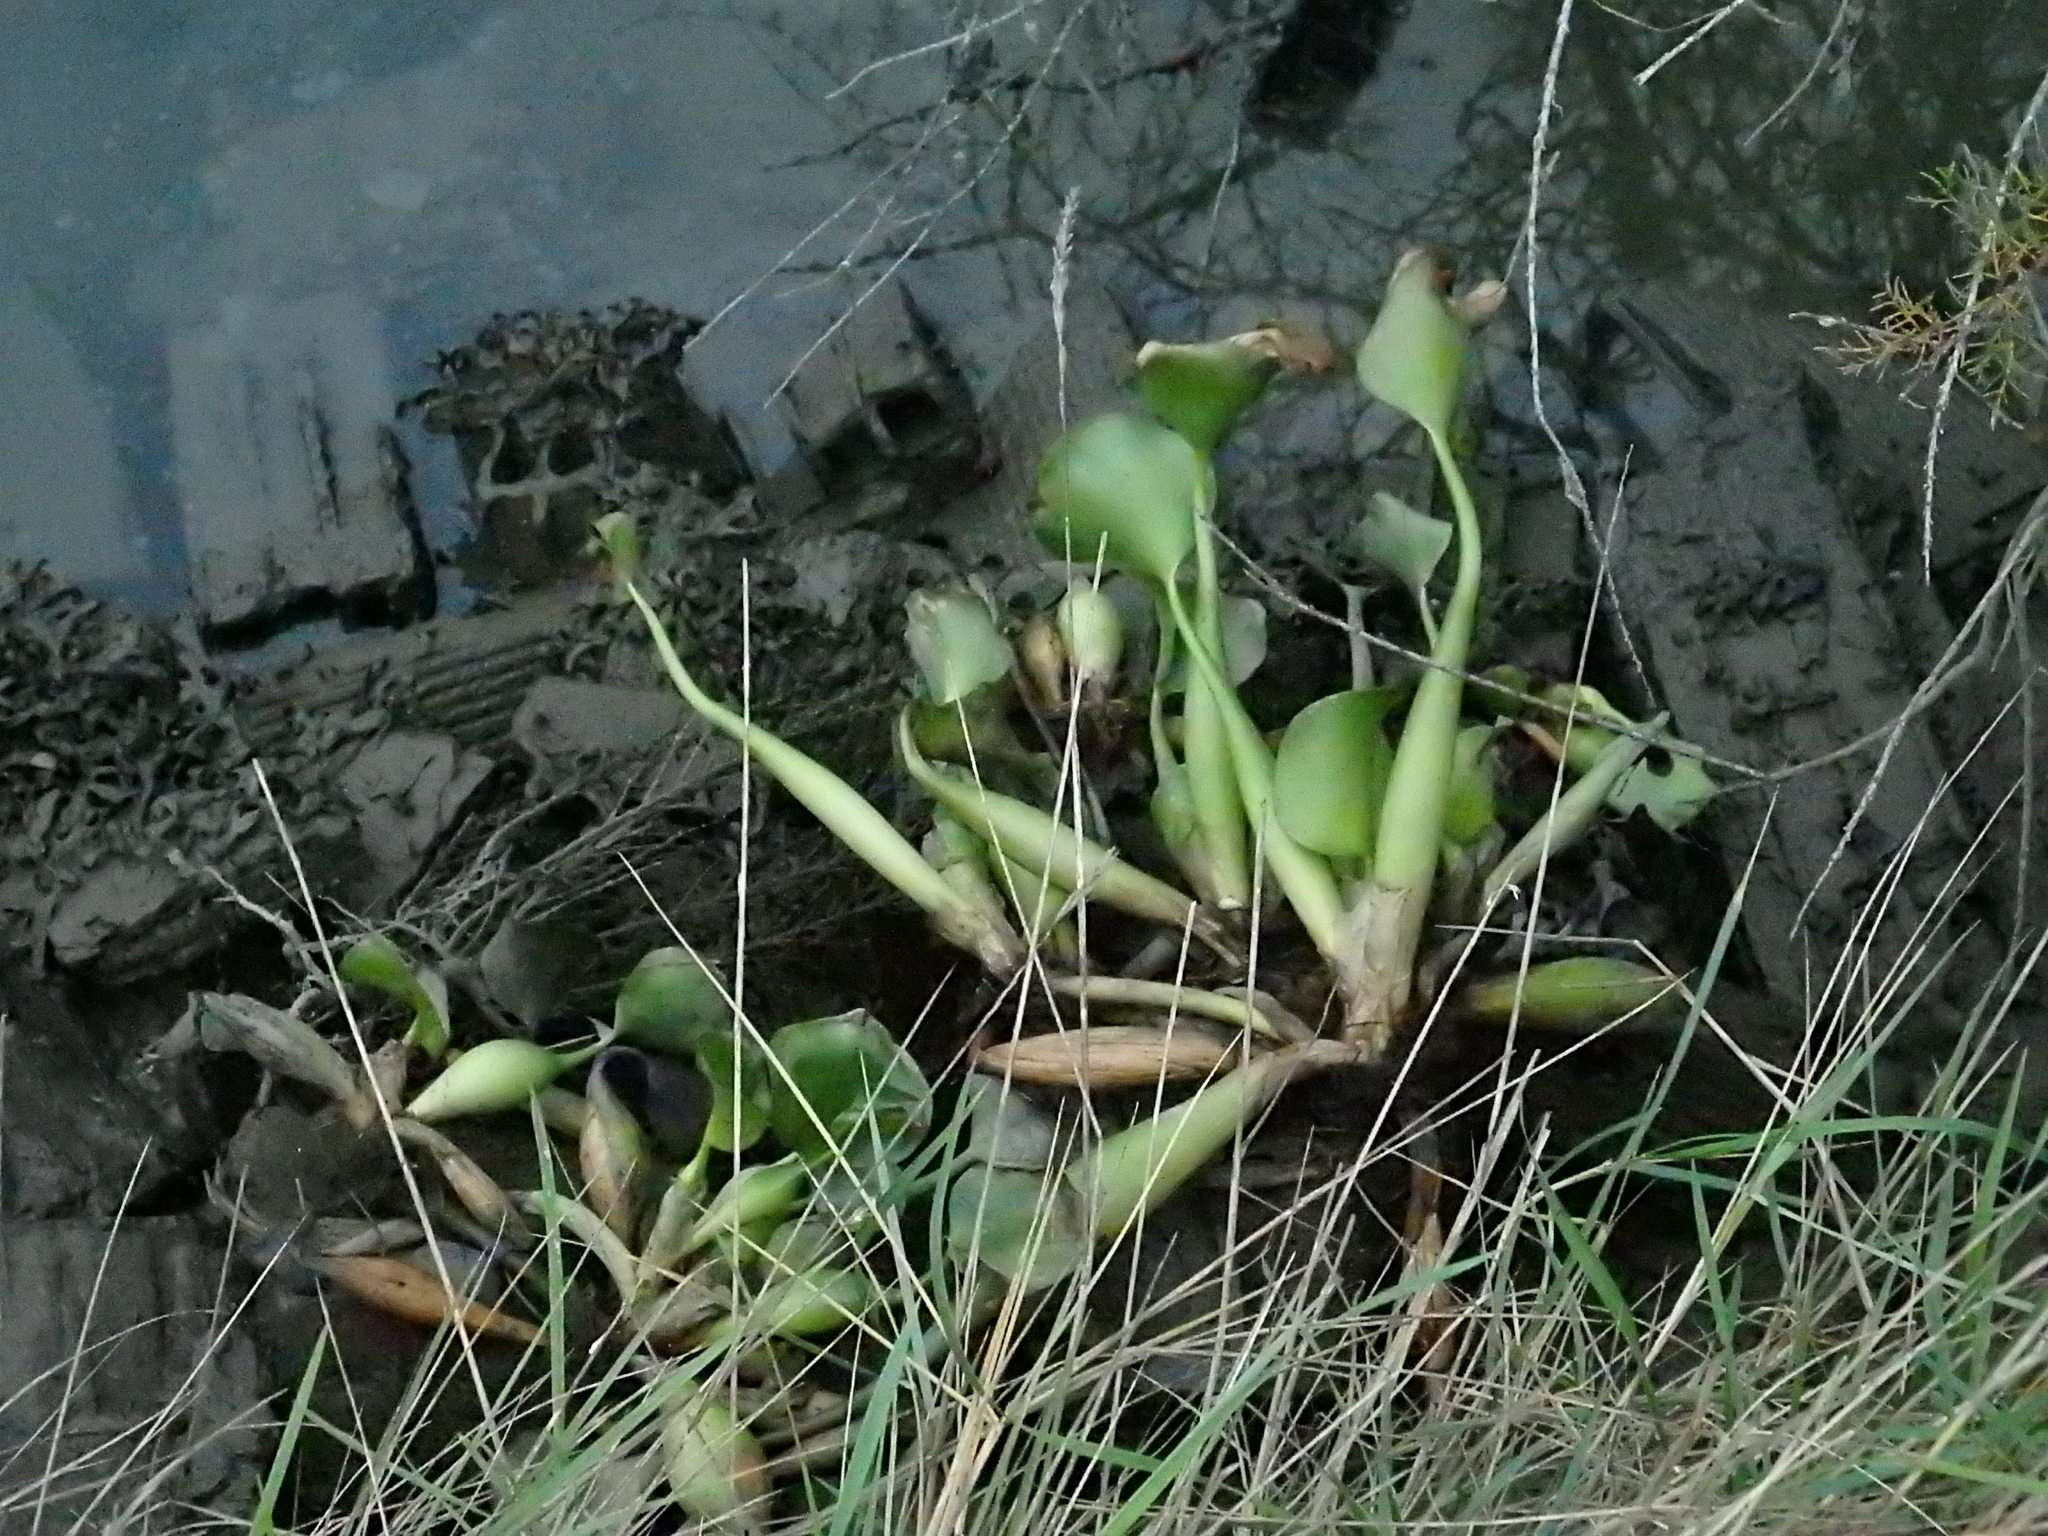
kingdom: Plantae
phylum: Tracheophyta
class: Liliopsida
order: Commelinales
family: Pontederiaceae
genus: Pontederia
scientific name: Pontederia crassipes
